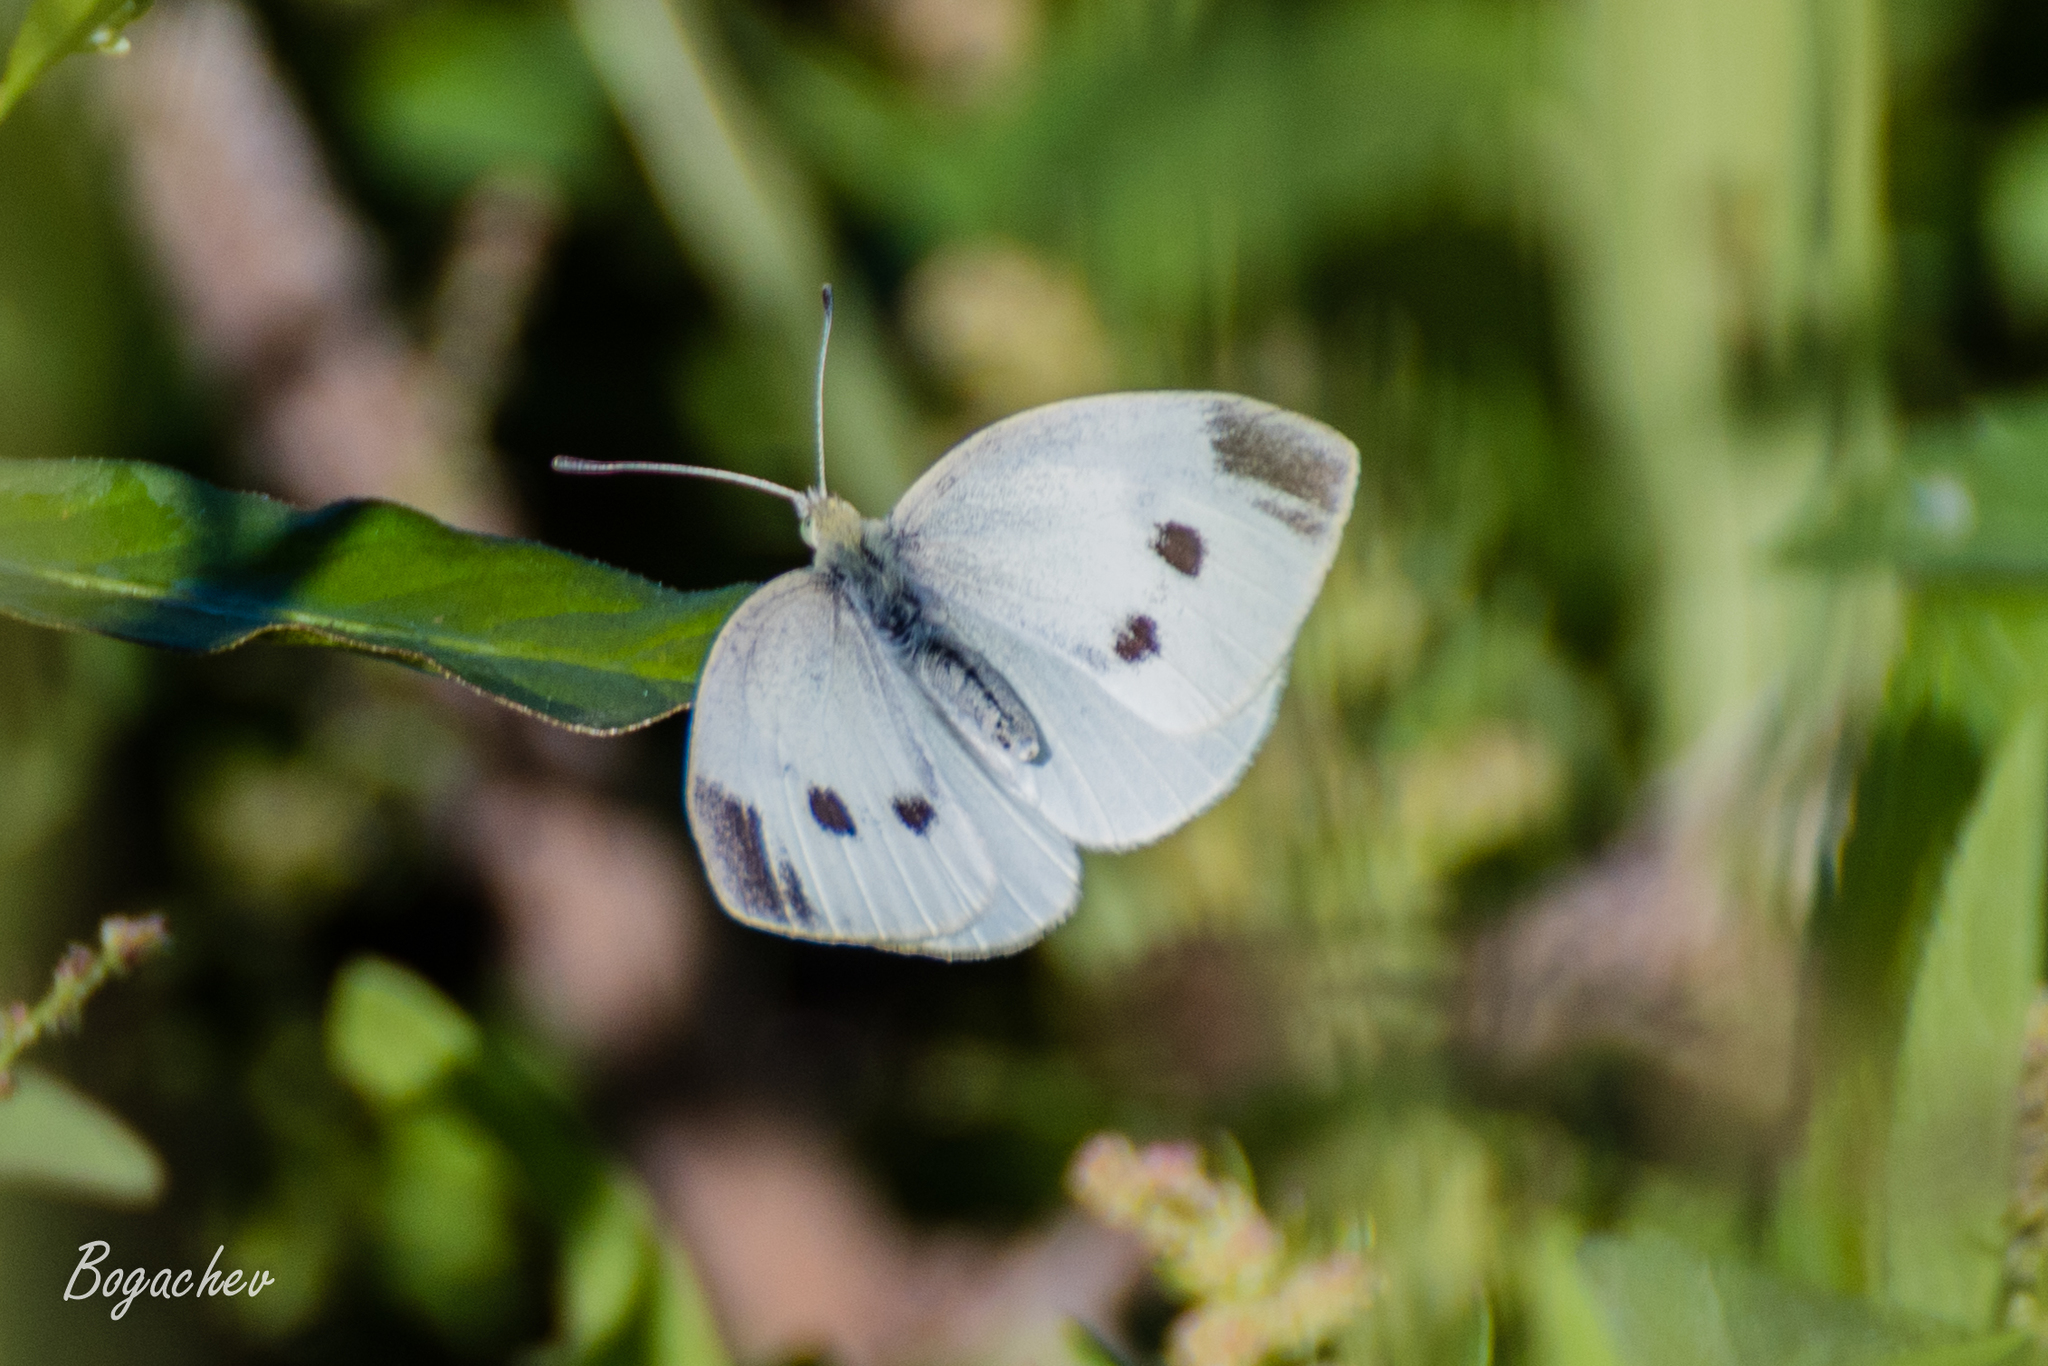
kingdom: Animalia
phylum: Arthropoda
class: Insecta
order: Lepidoptera
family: Pieridae
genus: Pieris
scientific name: Pieris rapae
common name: Small white
